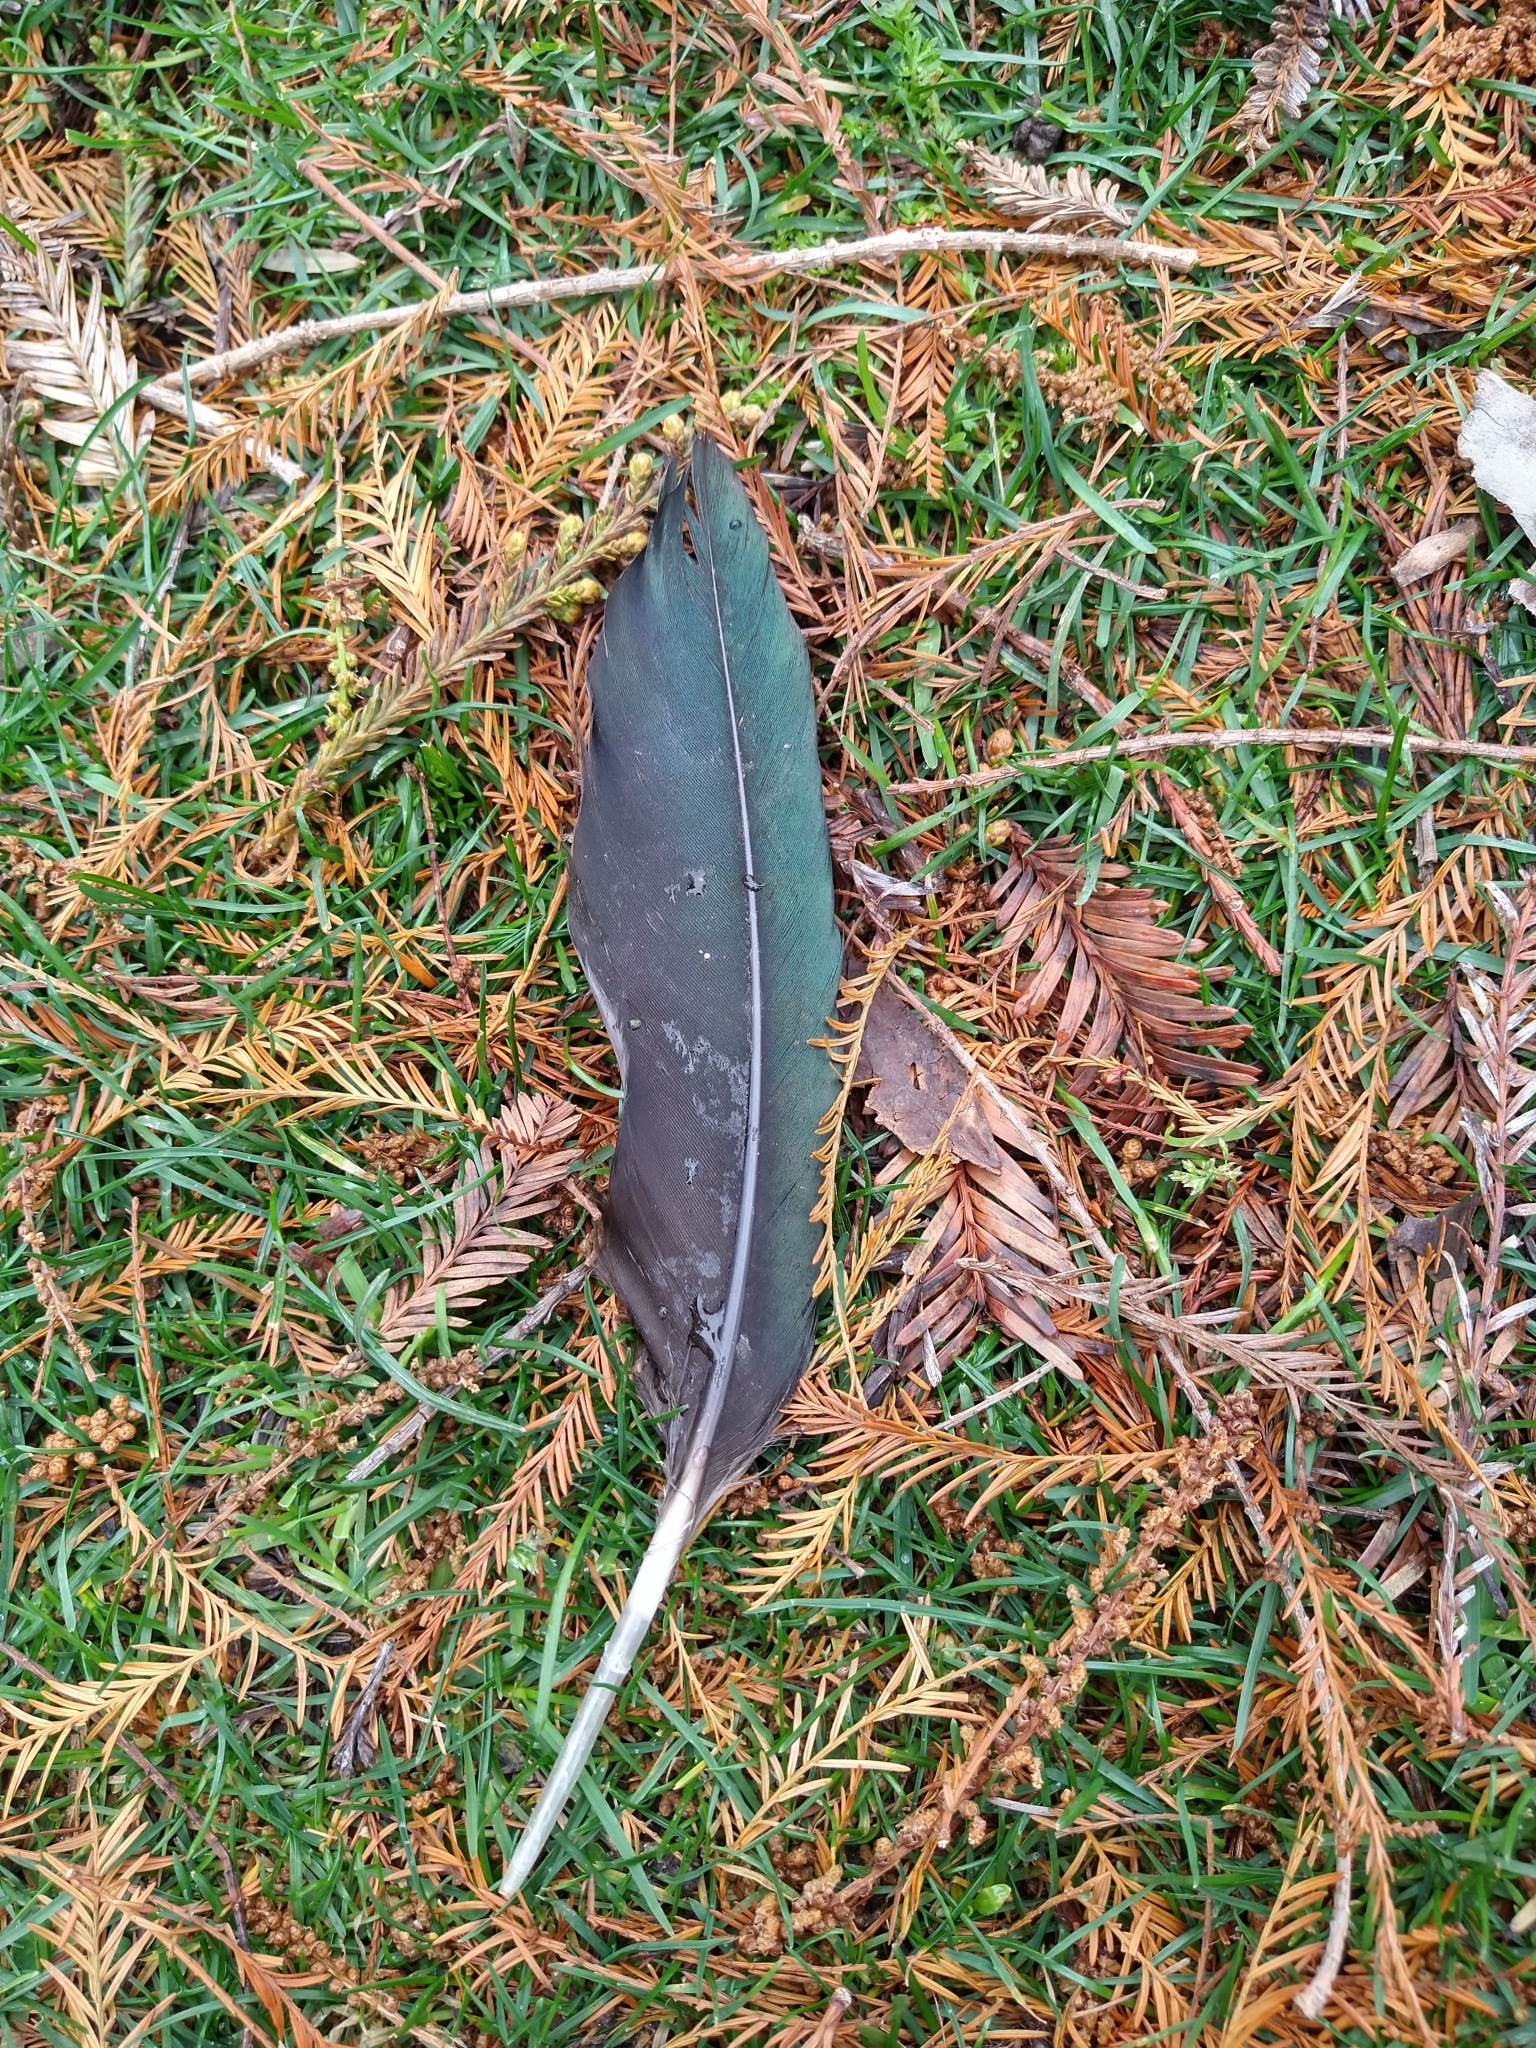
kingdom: Animalia
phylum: Chordata
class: Aves
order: Anseriformes
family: Anatidae
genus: Cairina
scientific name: Cairina moschata
